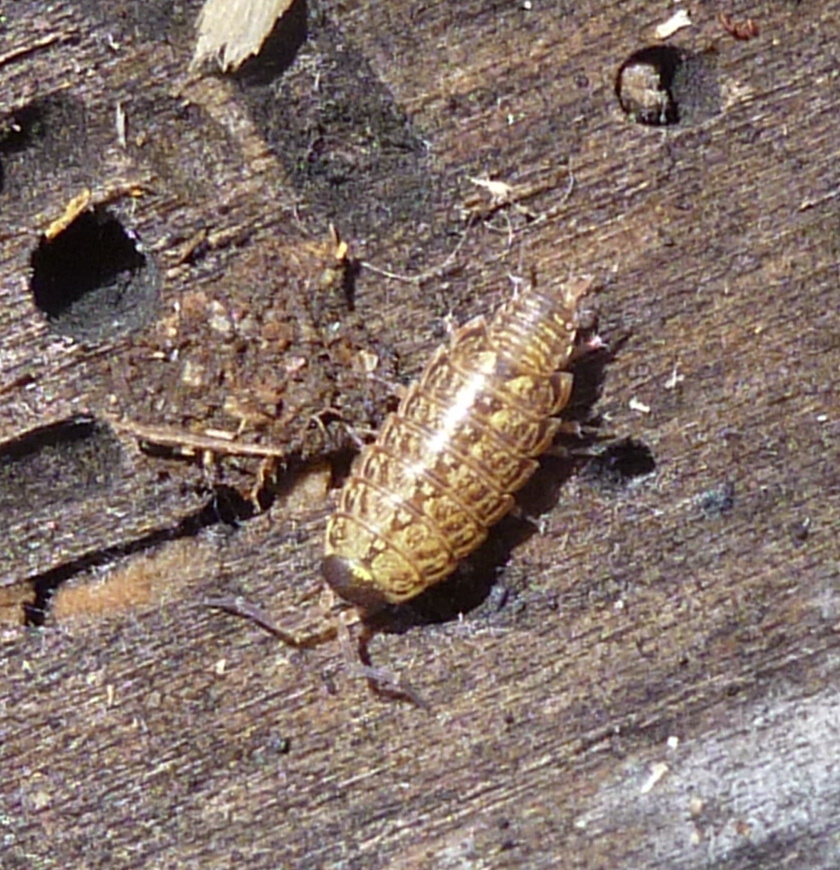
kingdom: Animalia
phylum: Arthropoda
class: Malacostraca
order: Isopoda
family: Philosciidae
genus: Philoscia
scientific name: Philoscia muscorum
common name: Common striped woodlouse
